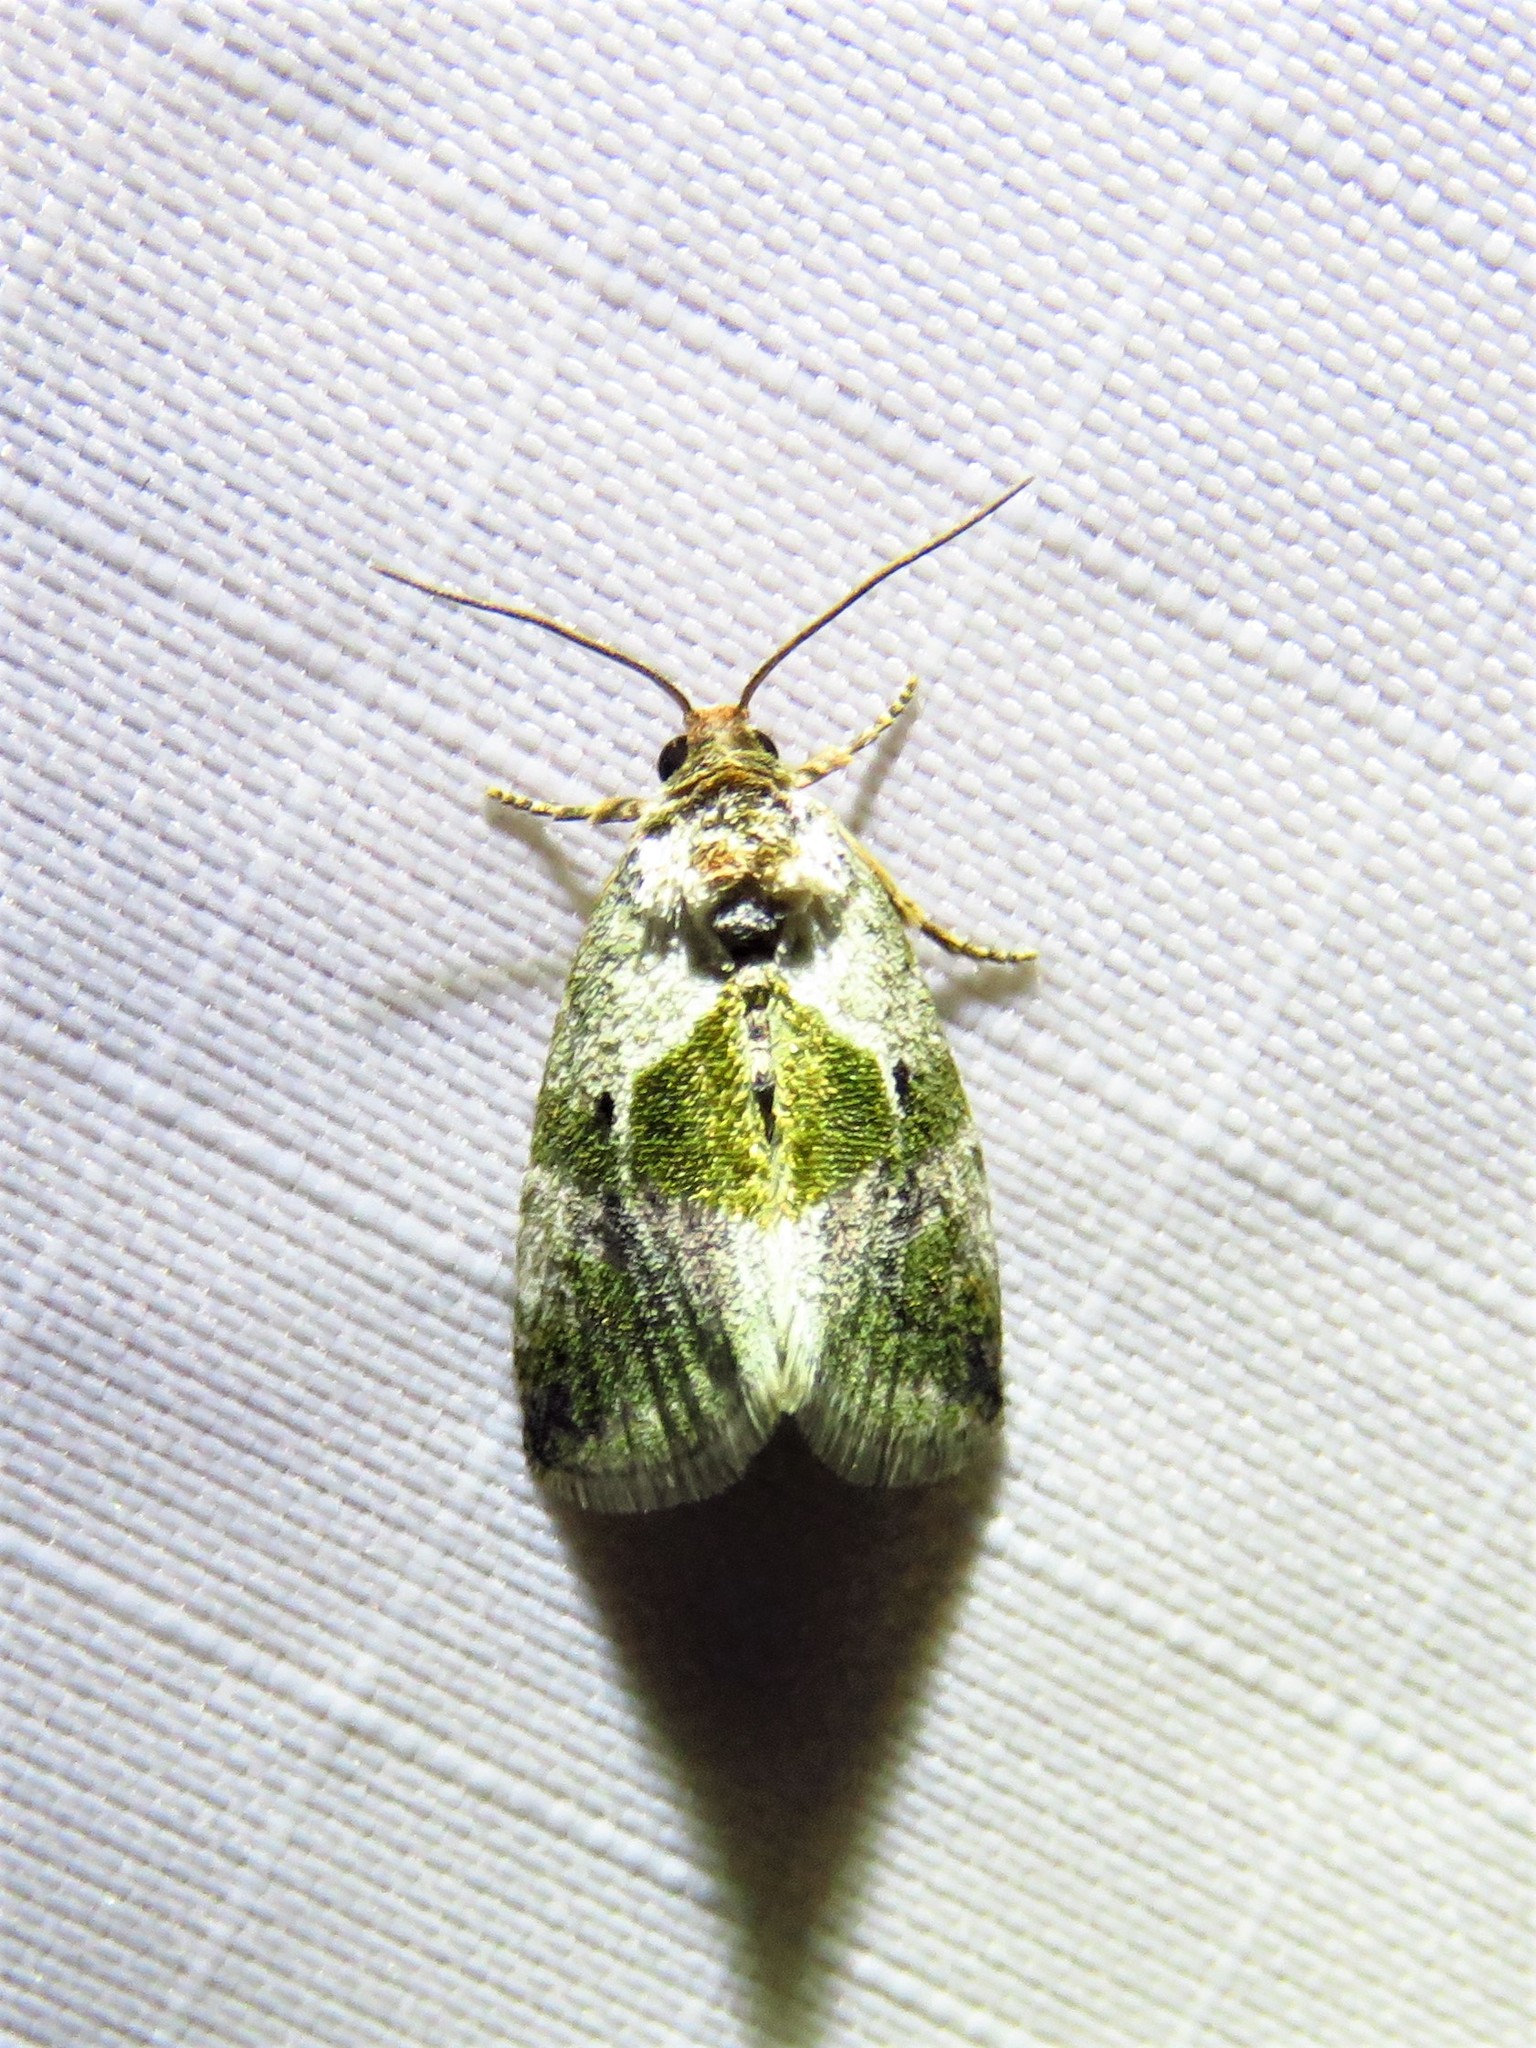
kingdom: Animalia
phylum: Arthropoda
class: Insecta
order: Lepidoptera
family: Noctuidae
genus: Maliattha
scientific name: Maliattha synochitis
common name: Black-dotted glyph
